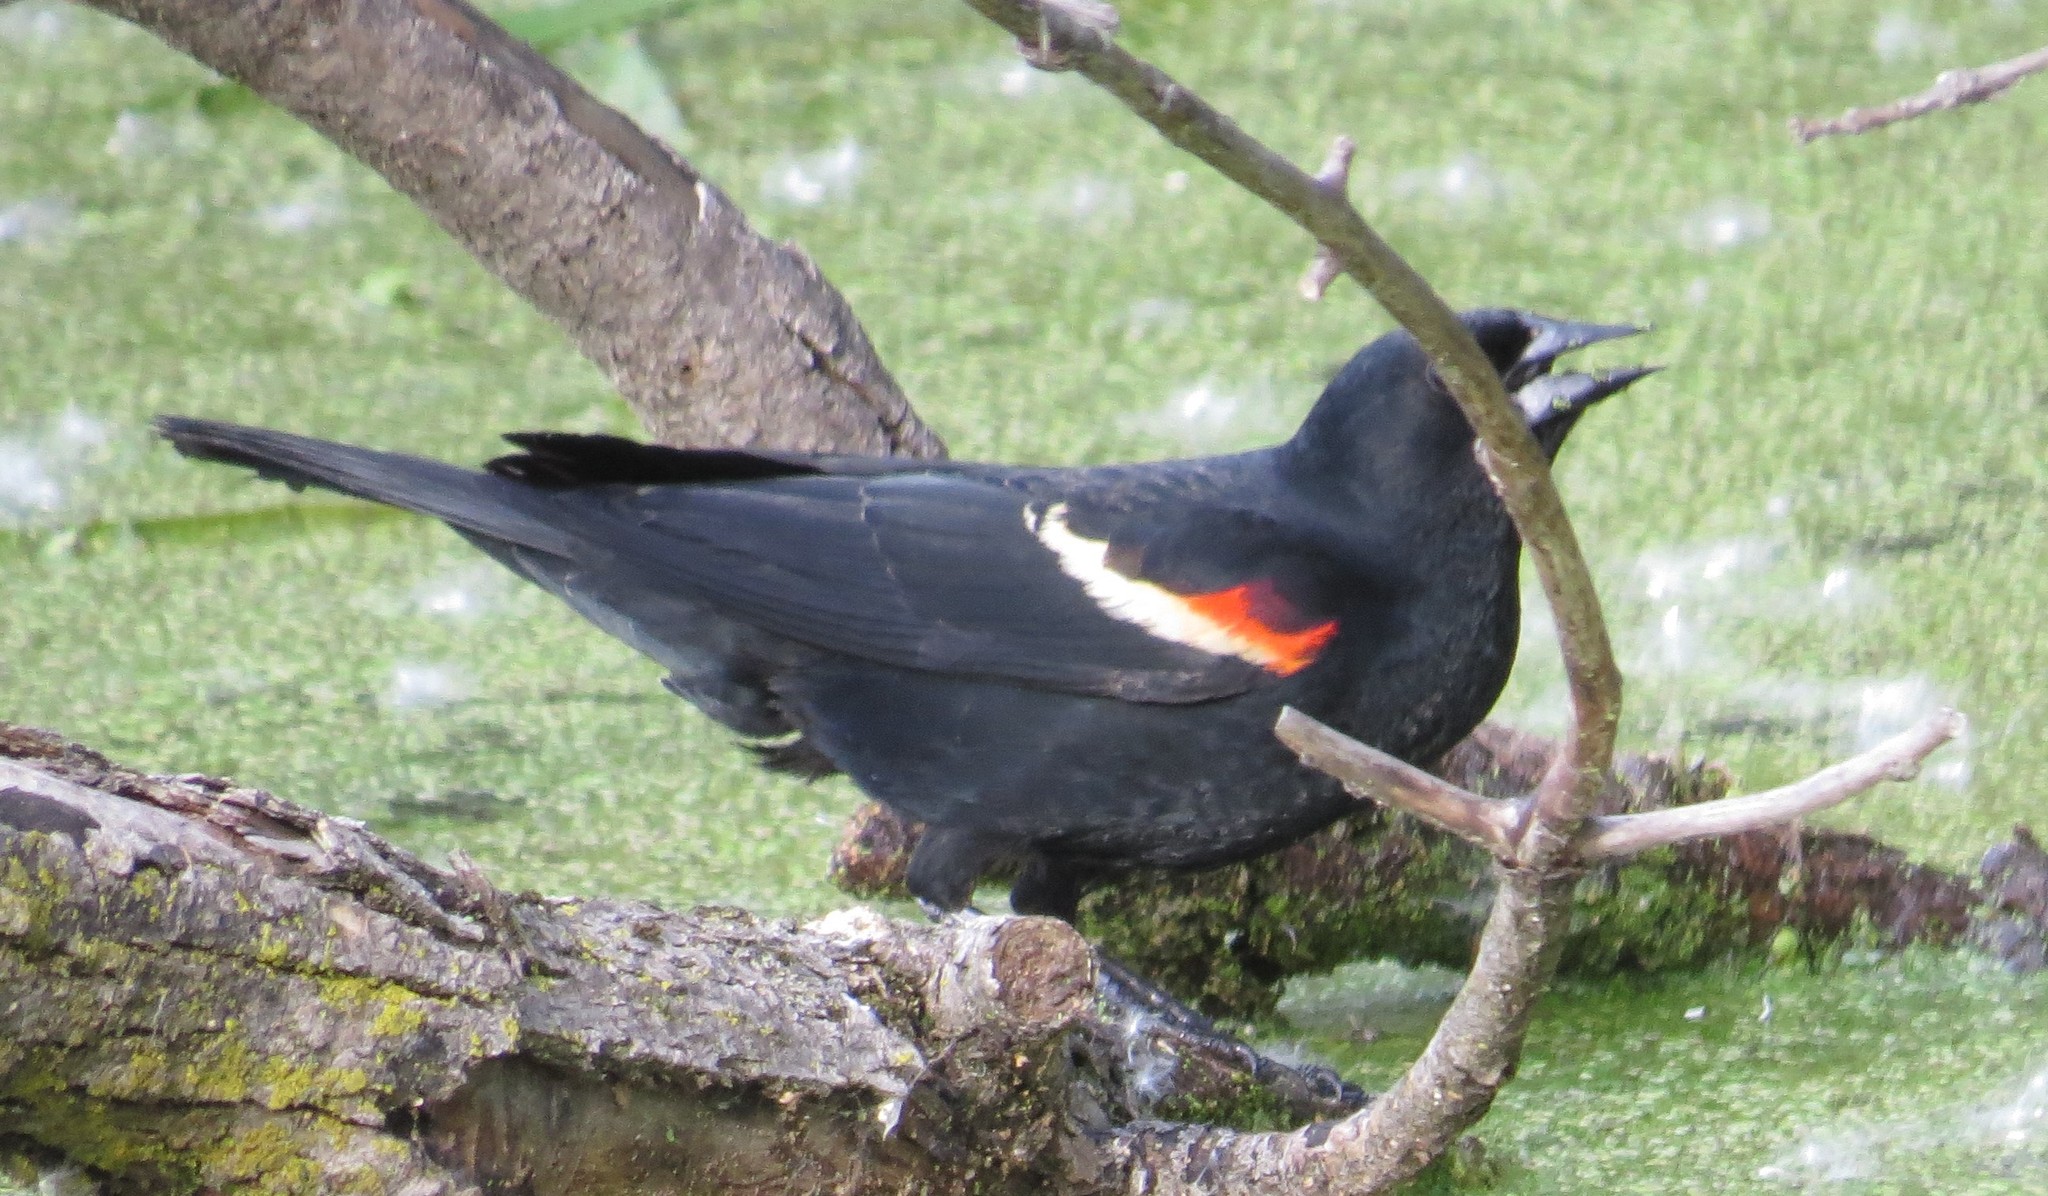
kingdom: Animalia
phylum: Chordata
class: Aves
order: Passeriformes
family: Icteridae
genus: Agelaius
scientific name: Agelaius phoeniceus
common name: Red-winged blackbird
